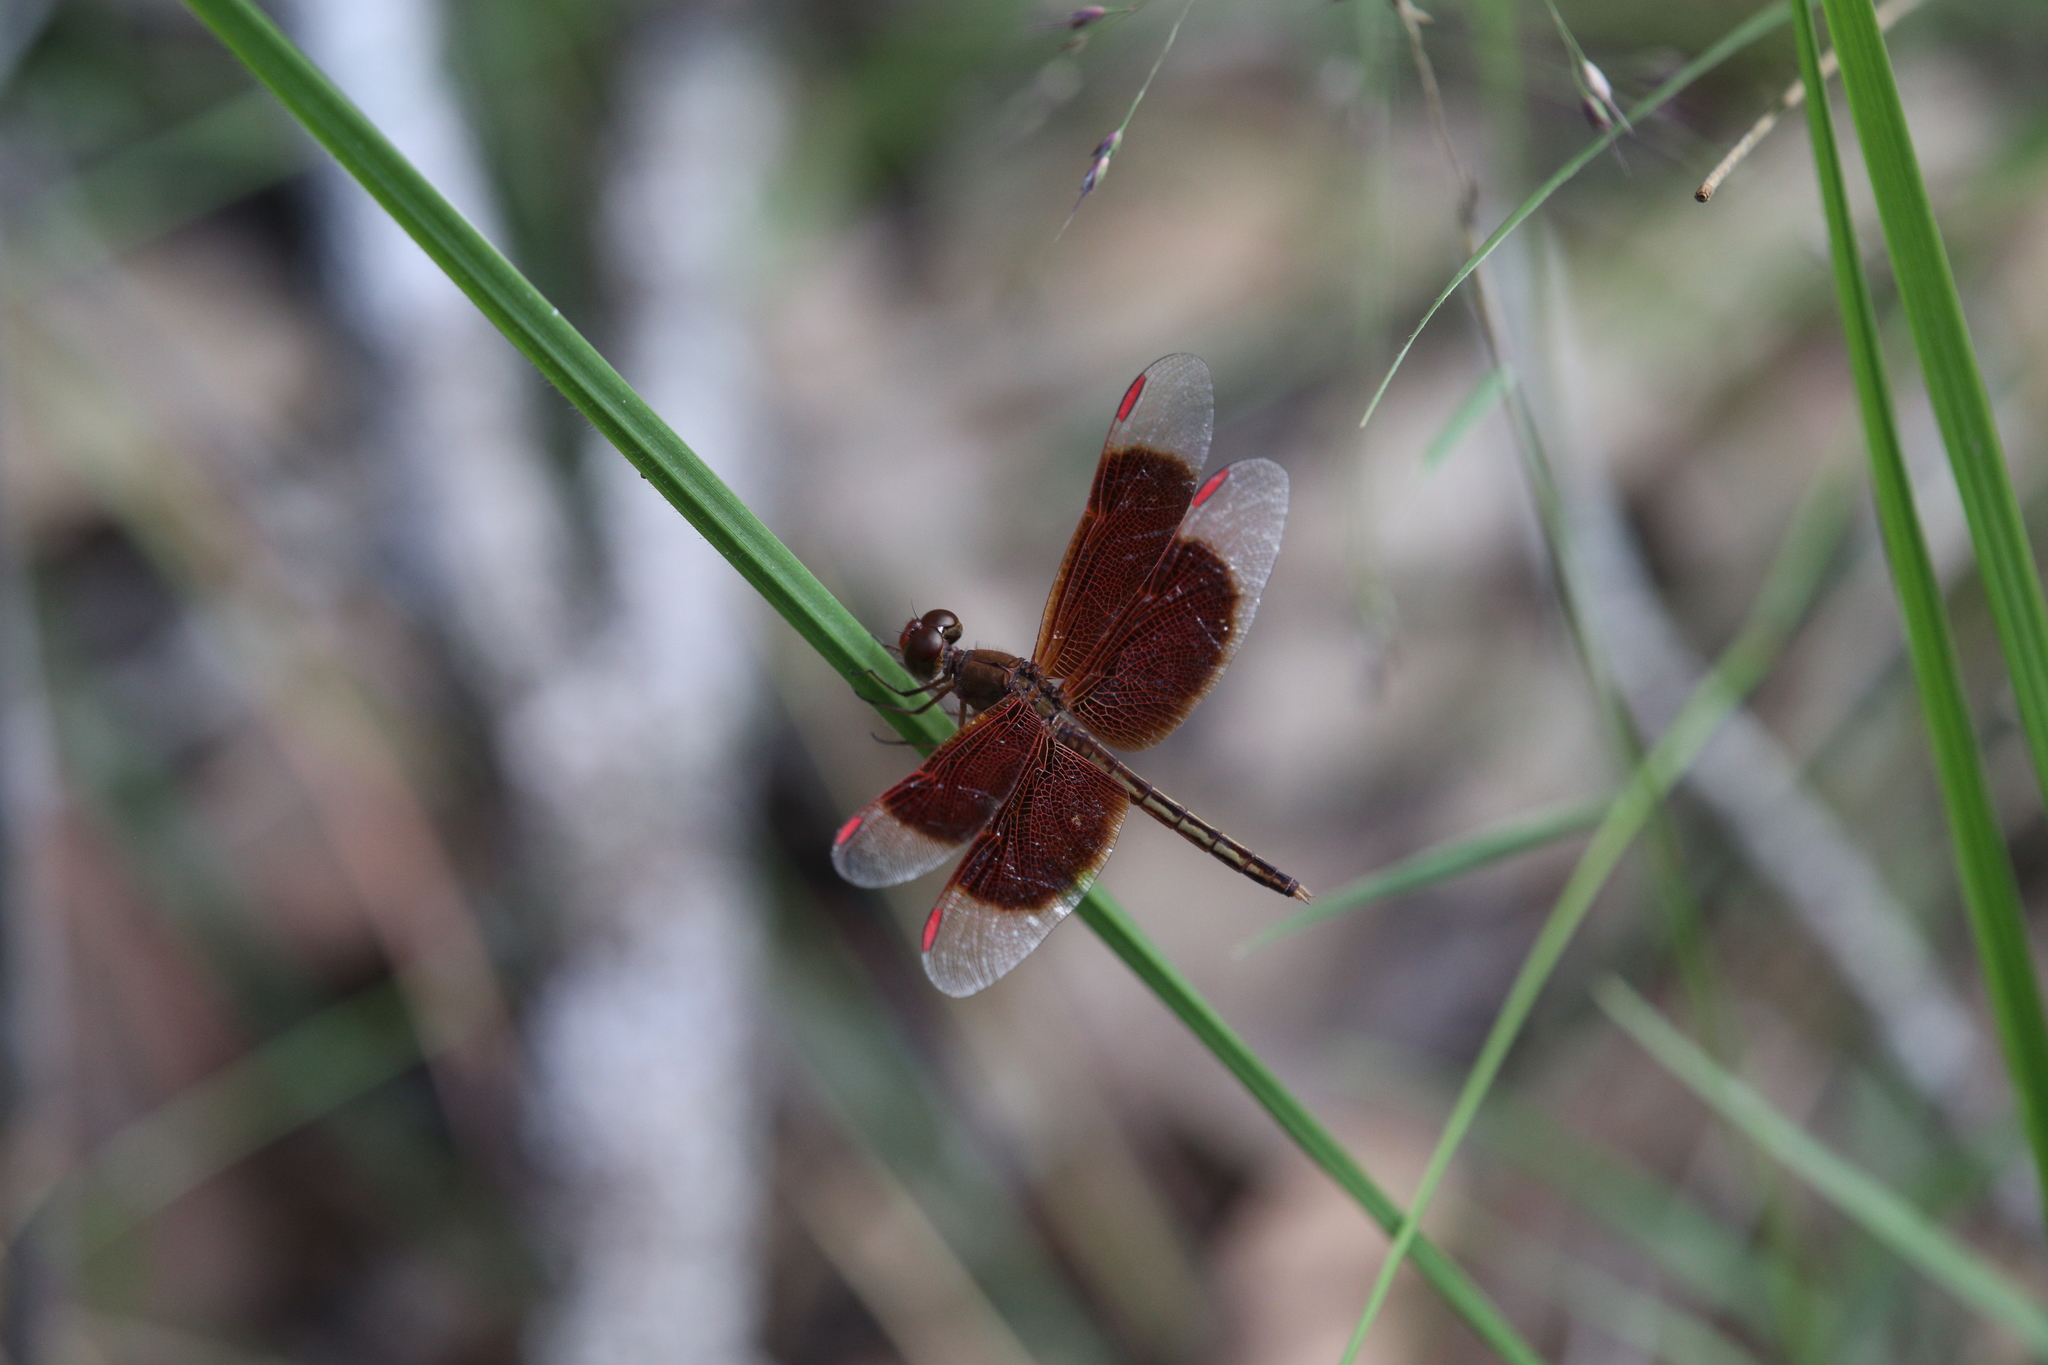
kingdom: Animalia
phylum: Arthropoda
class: Insecta
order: Odonata
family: Libellulidae
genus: Neurothemis
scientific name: Neurothemis stigmatizans
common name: Painted grasshawk
